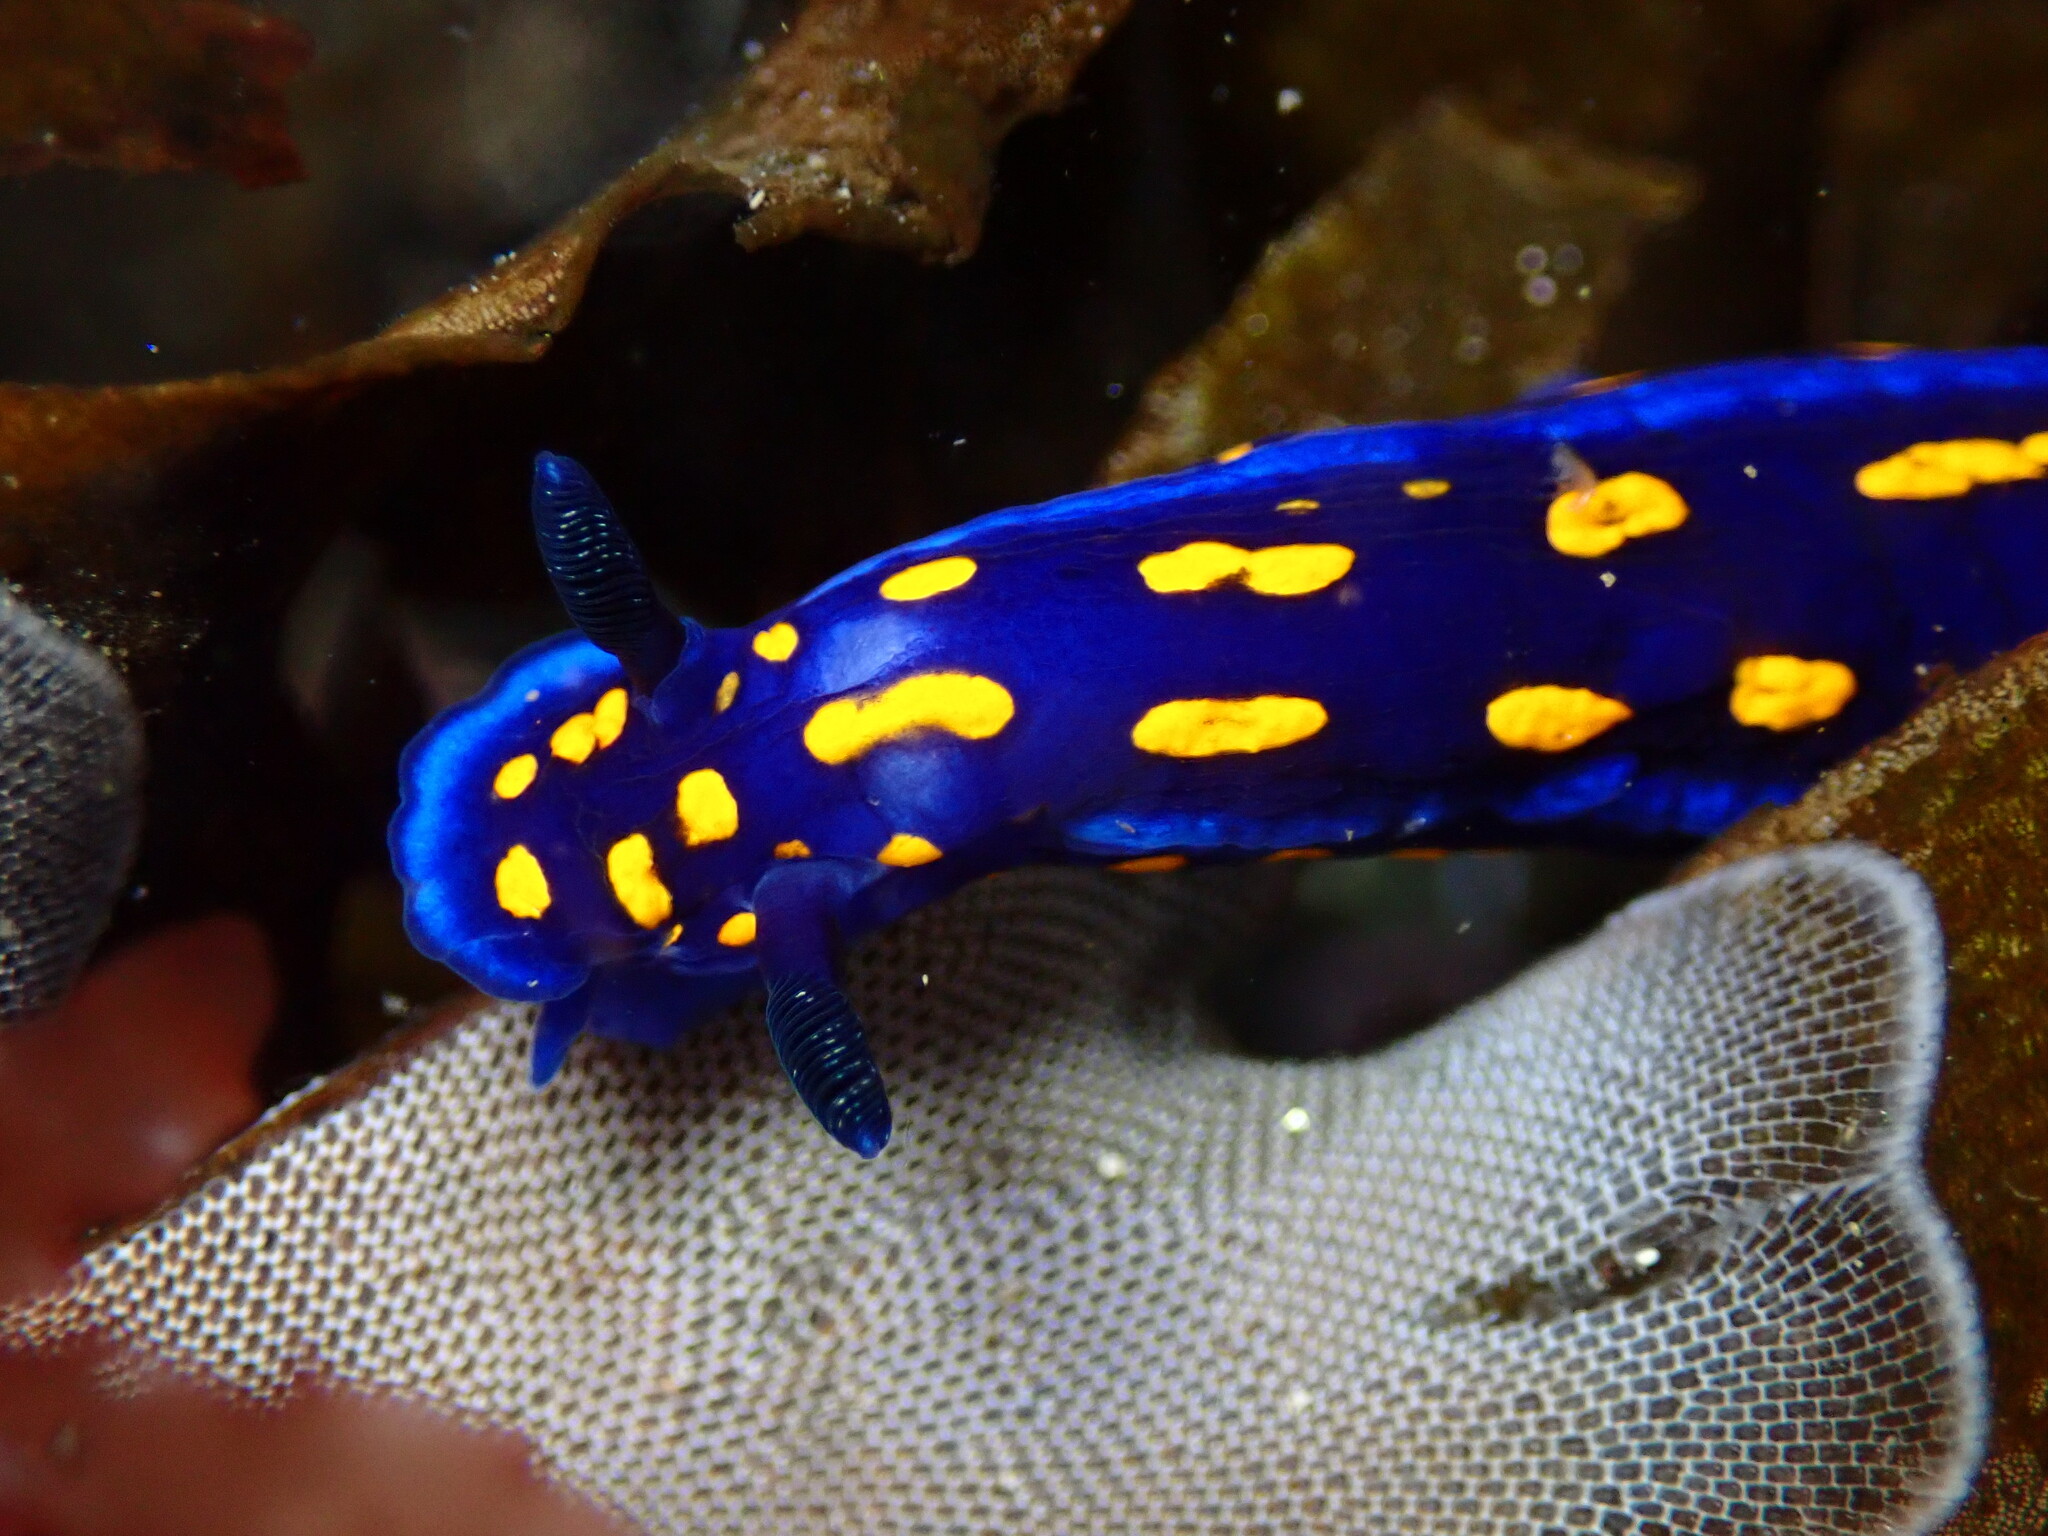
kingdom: Animalia
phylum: Mollusca
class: Gastropoda
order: Nudibranchia
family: Chromodorididae
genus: Felimare
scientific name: Felimare californiensis
